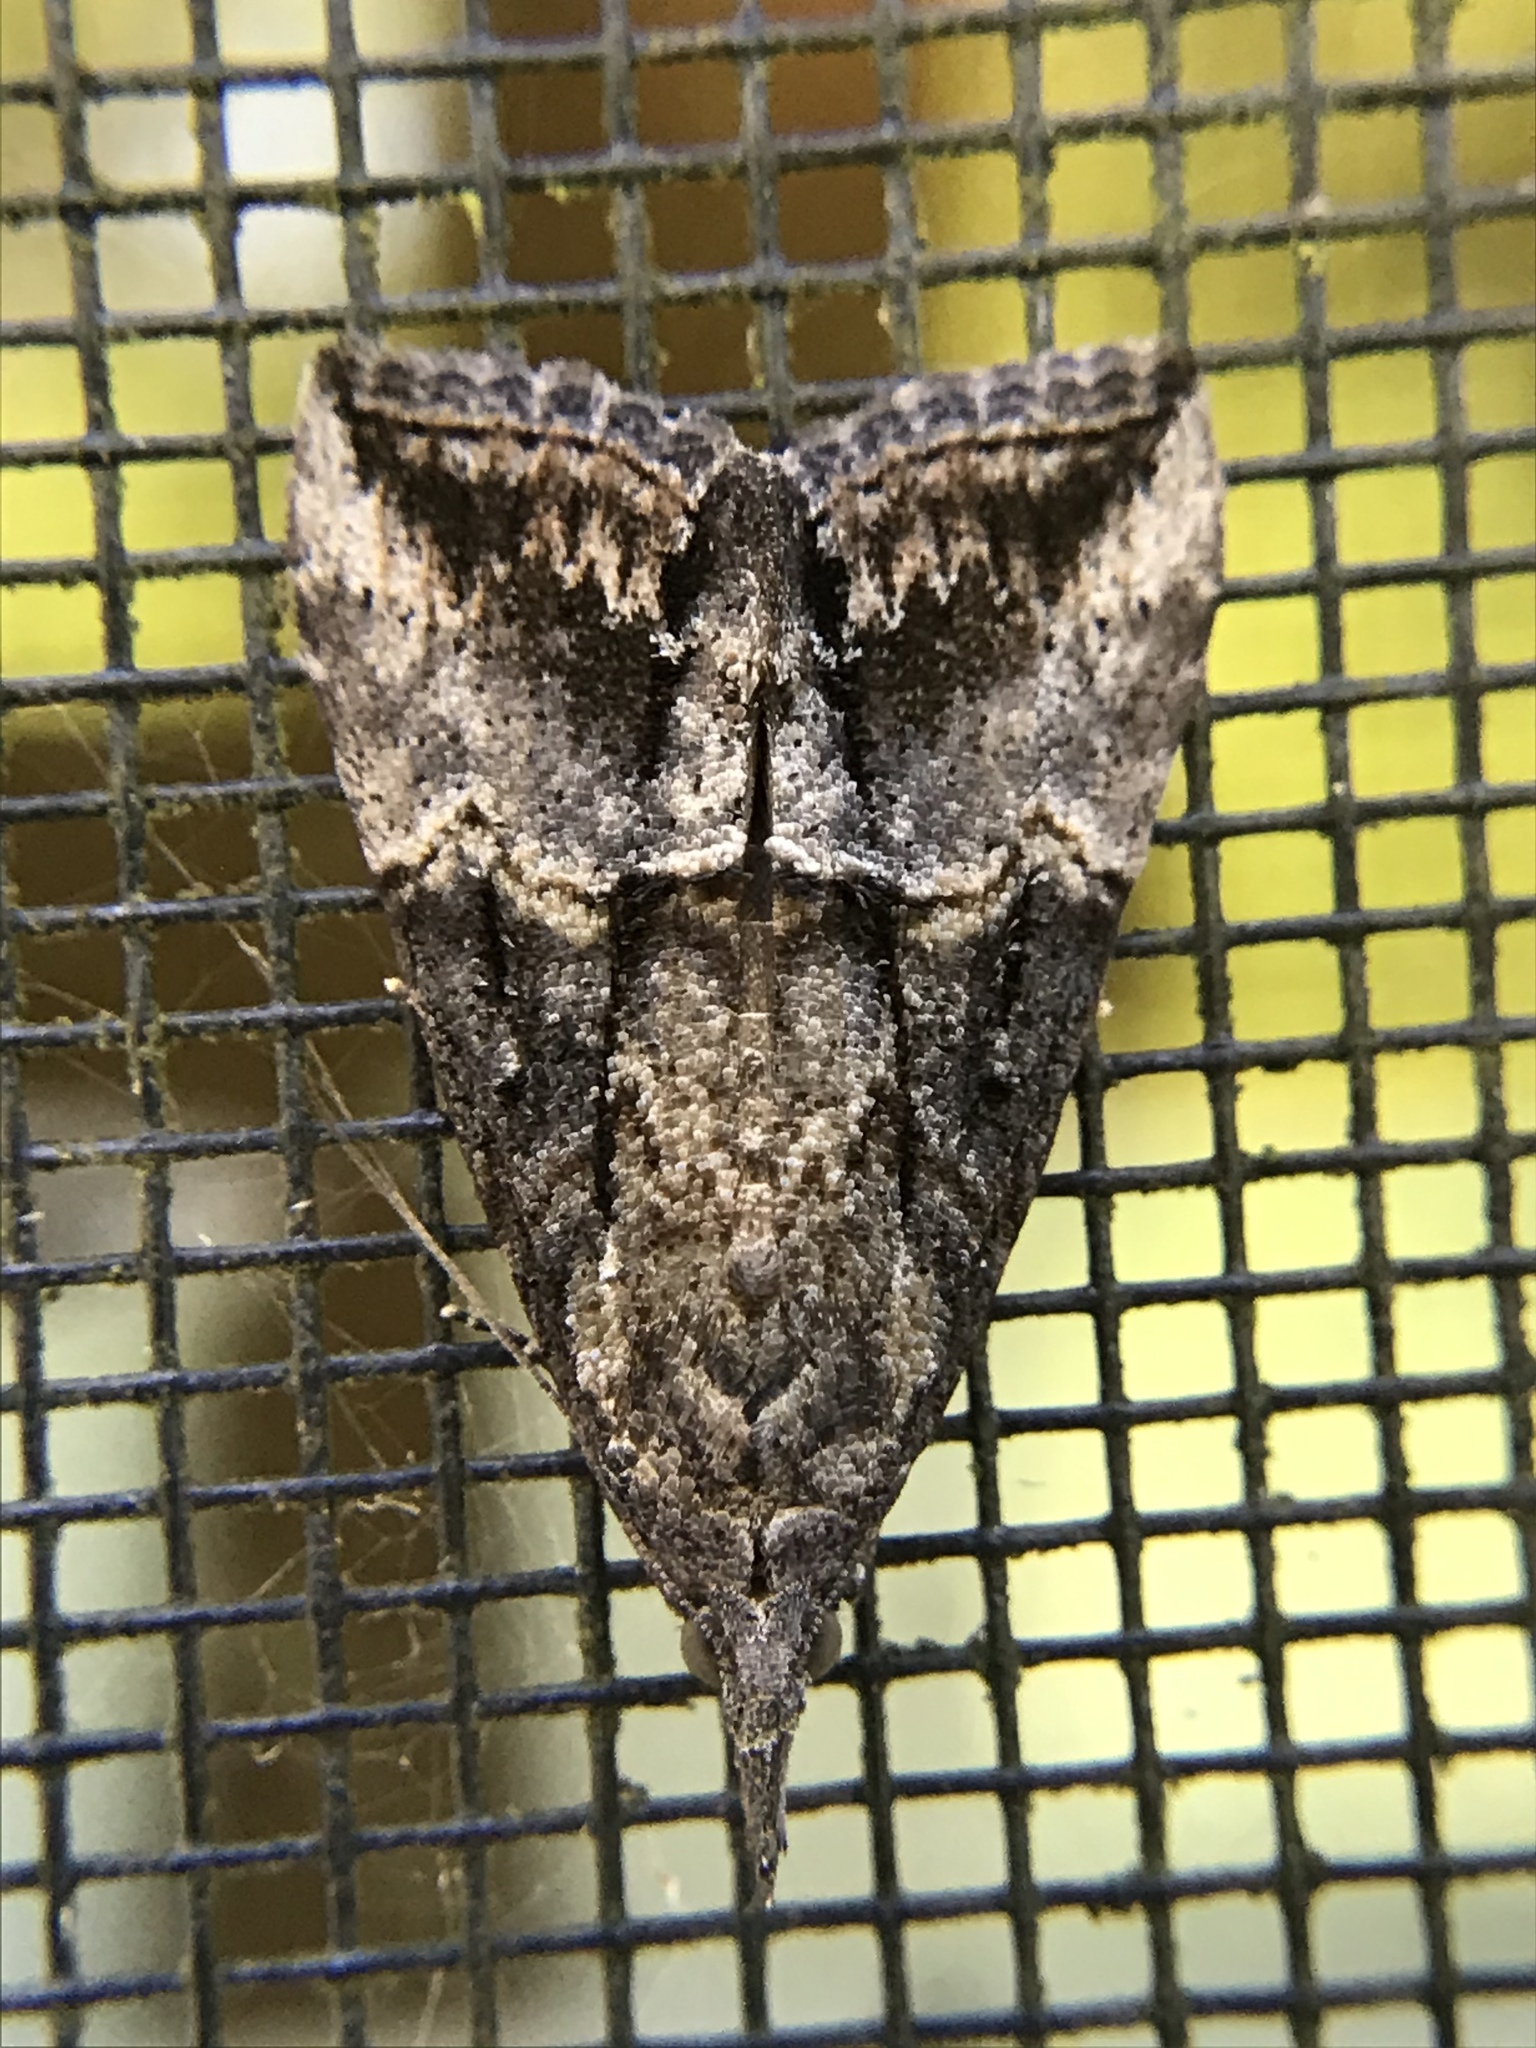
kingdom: Animalia
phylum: Arthropoda
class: Insecta
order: Lepidoptera
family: Erebidae
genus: Hypena
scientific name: Hypena scabra
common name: Green cloverworm
